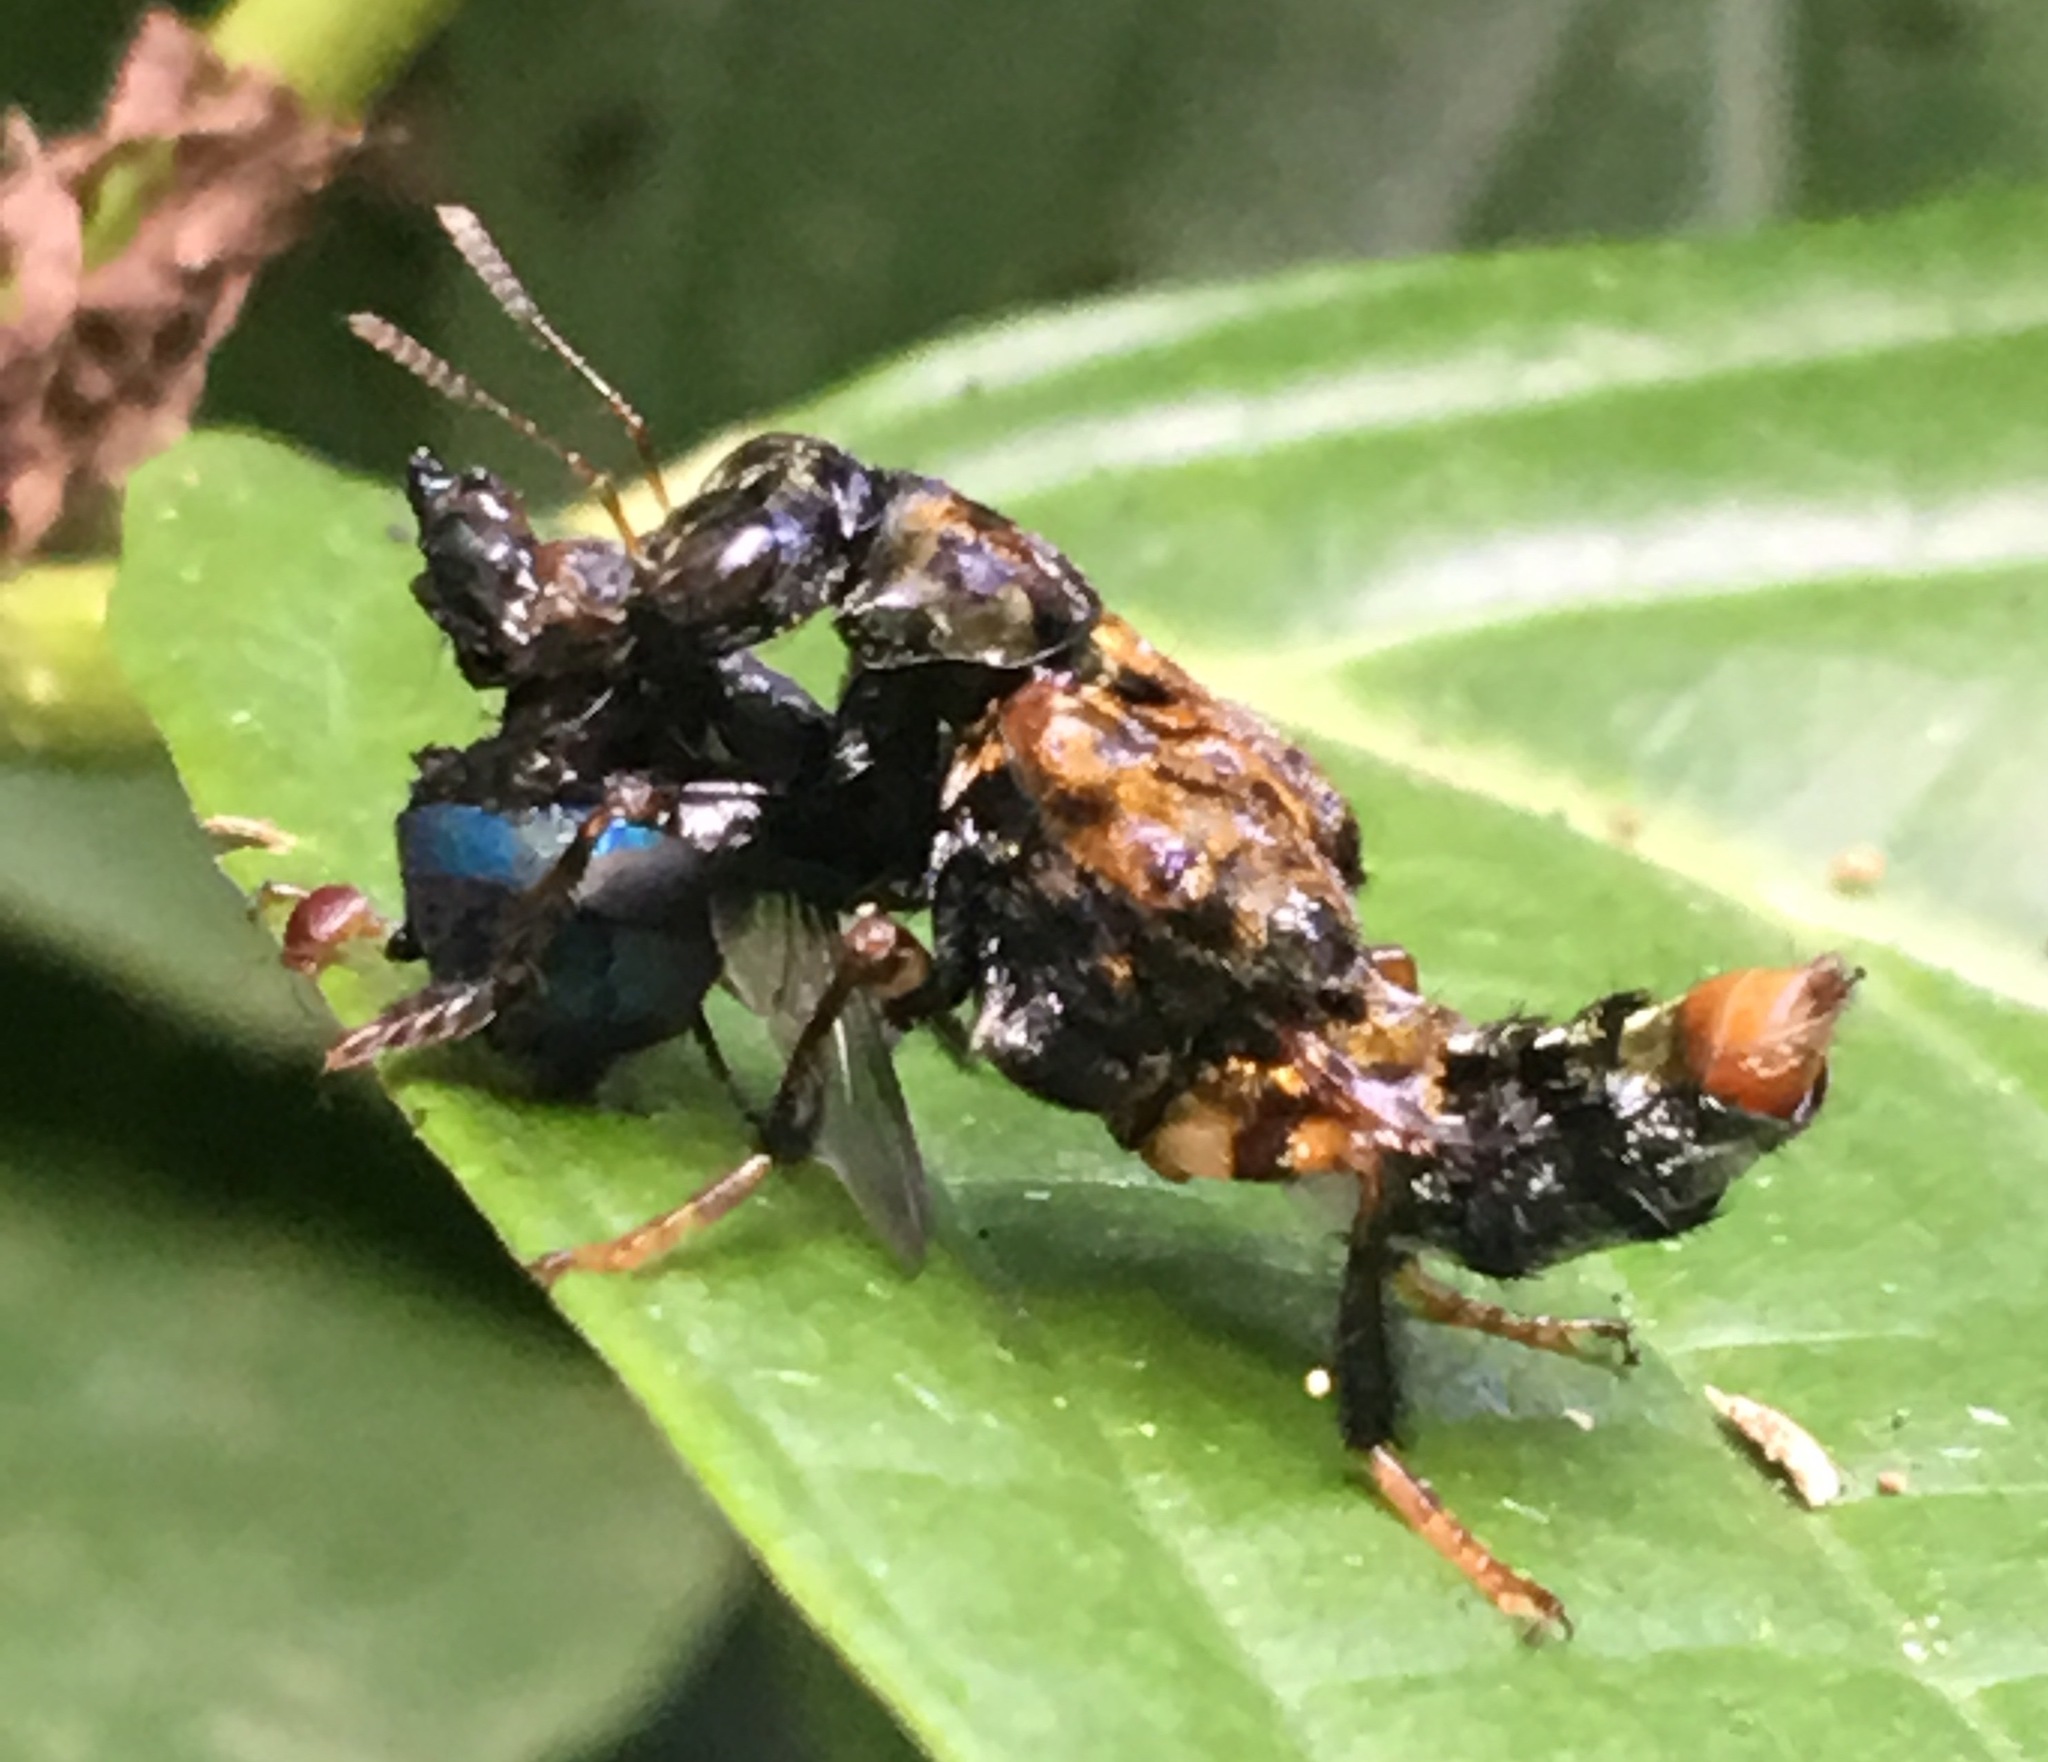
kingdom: Animalia
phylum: Arthropoda
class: Insecta
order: Coleoptera
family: Staphylinidae
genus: Leistotrophus
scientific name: Leistotrophus versicolor
